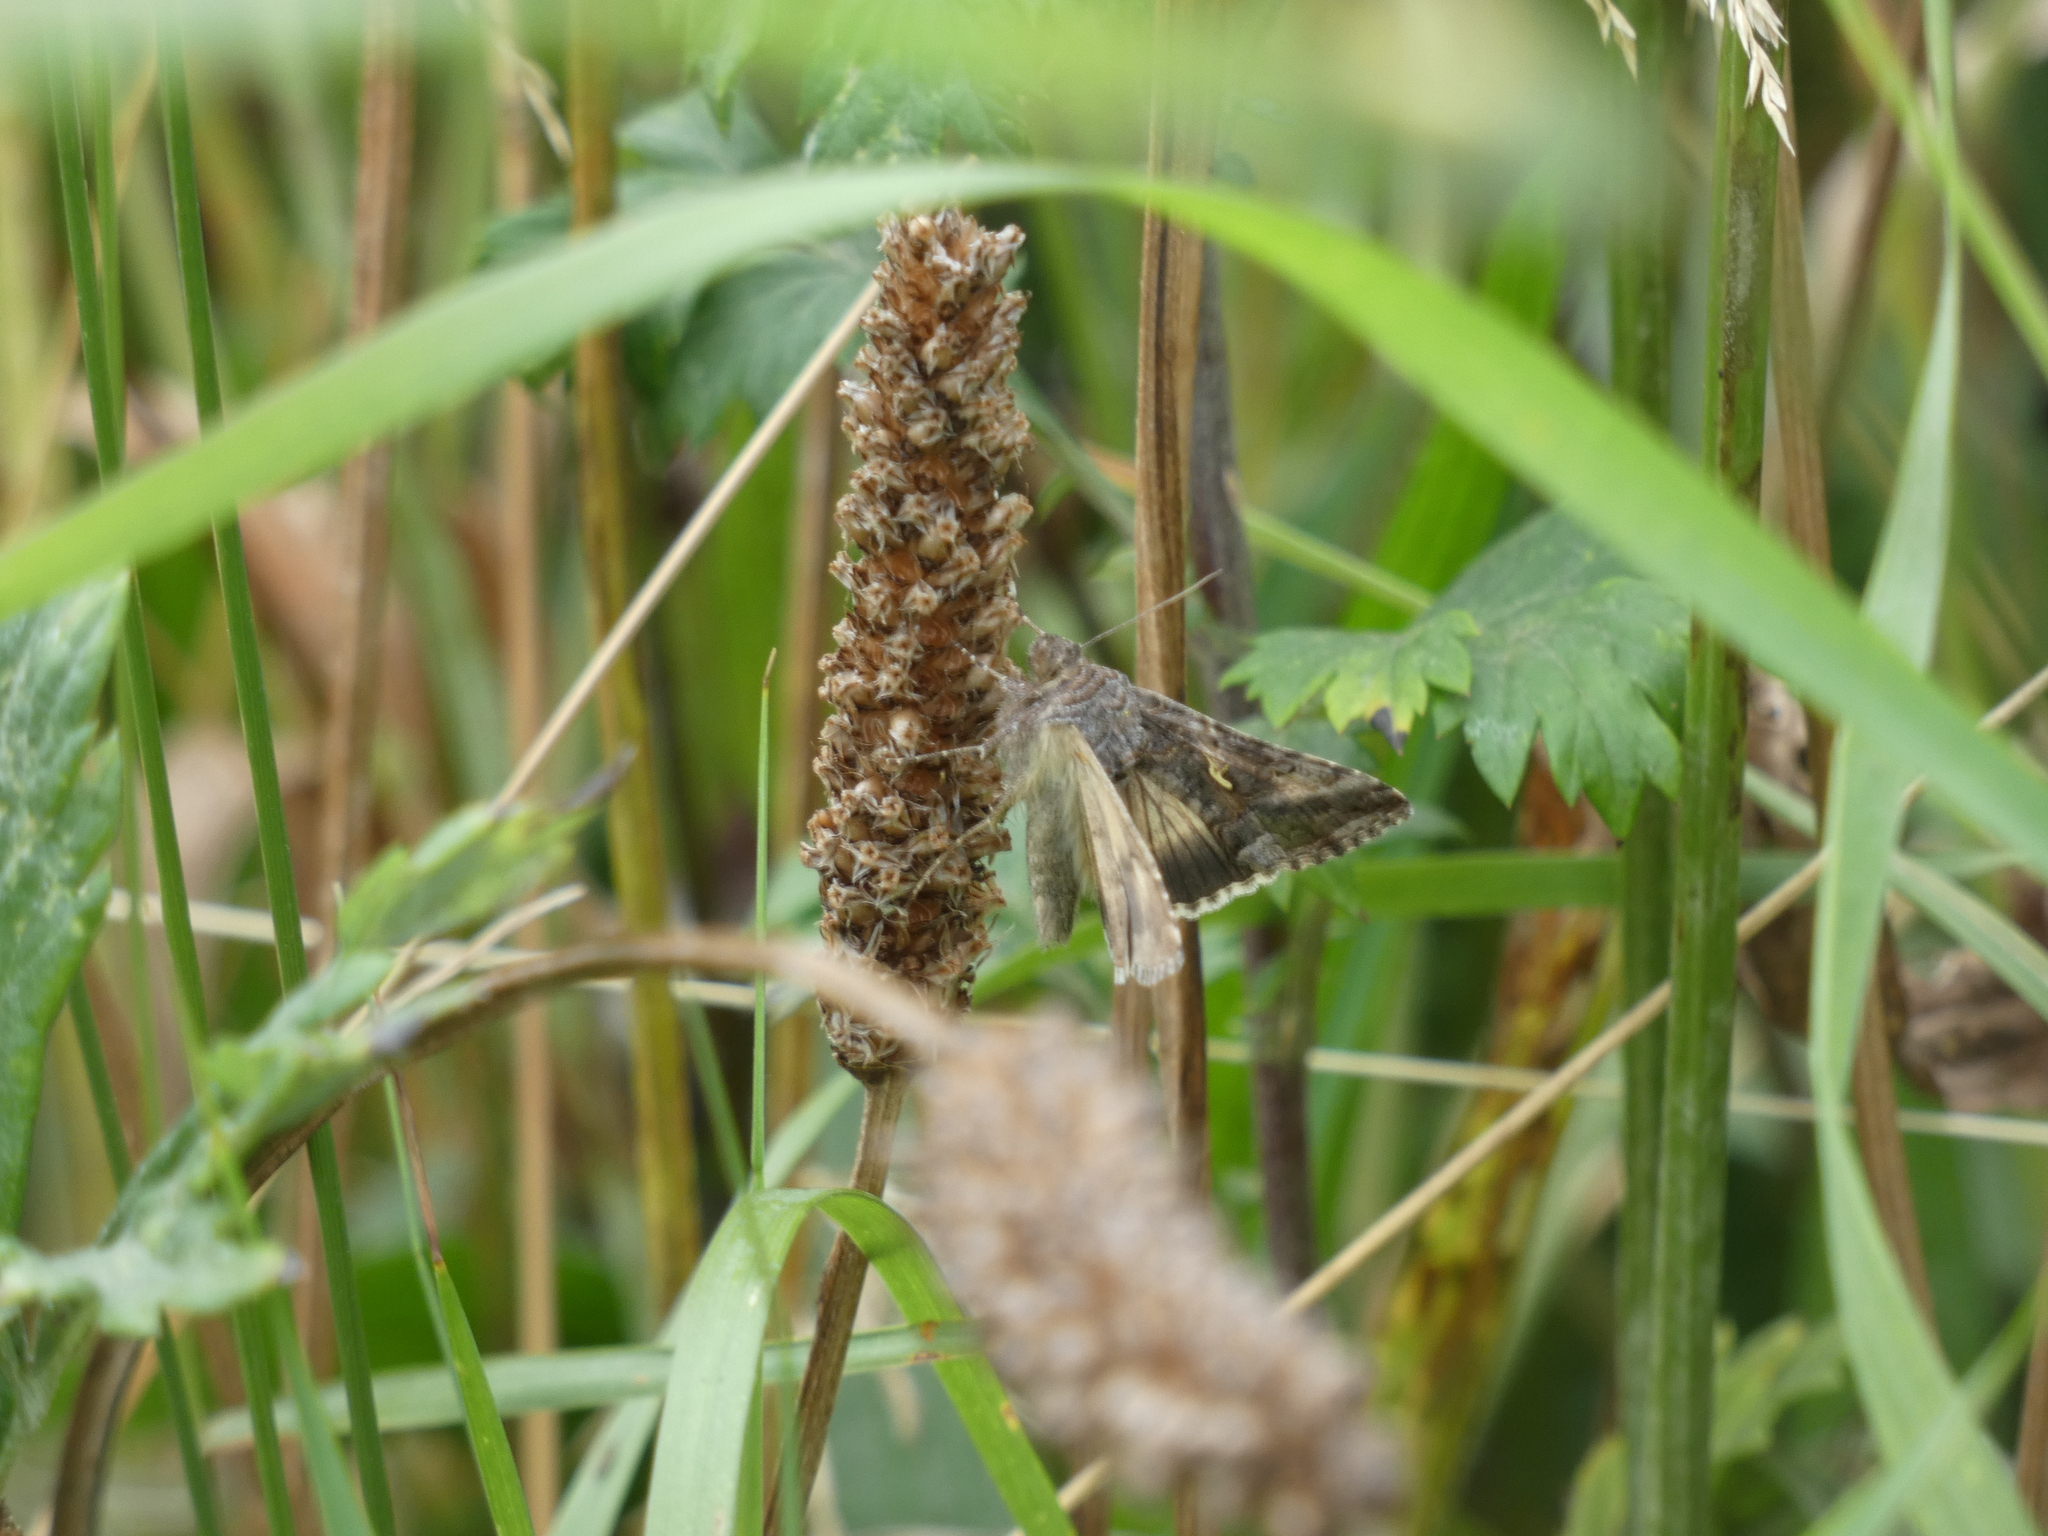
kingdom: Animalia
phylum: Arthropoda
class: Insecta
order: Lepidoptera
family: Noctuidae
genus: Autographa
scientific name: Autographa gamma
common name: Silver y
